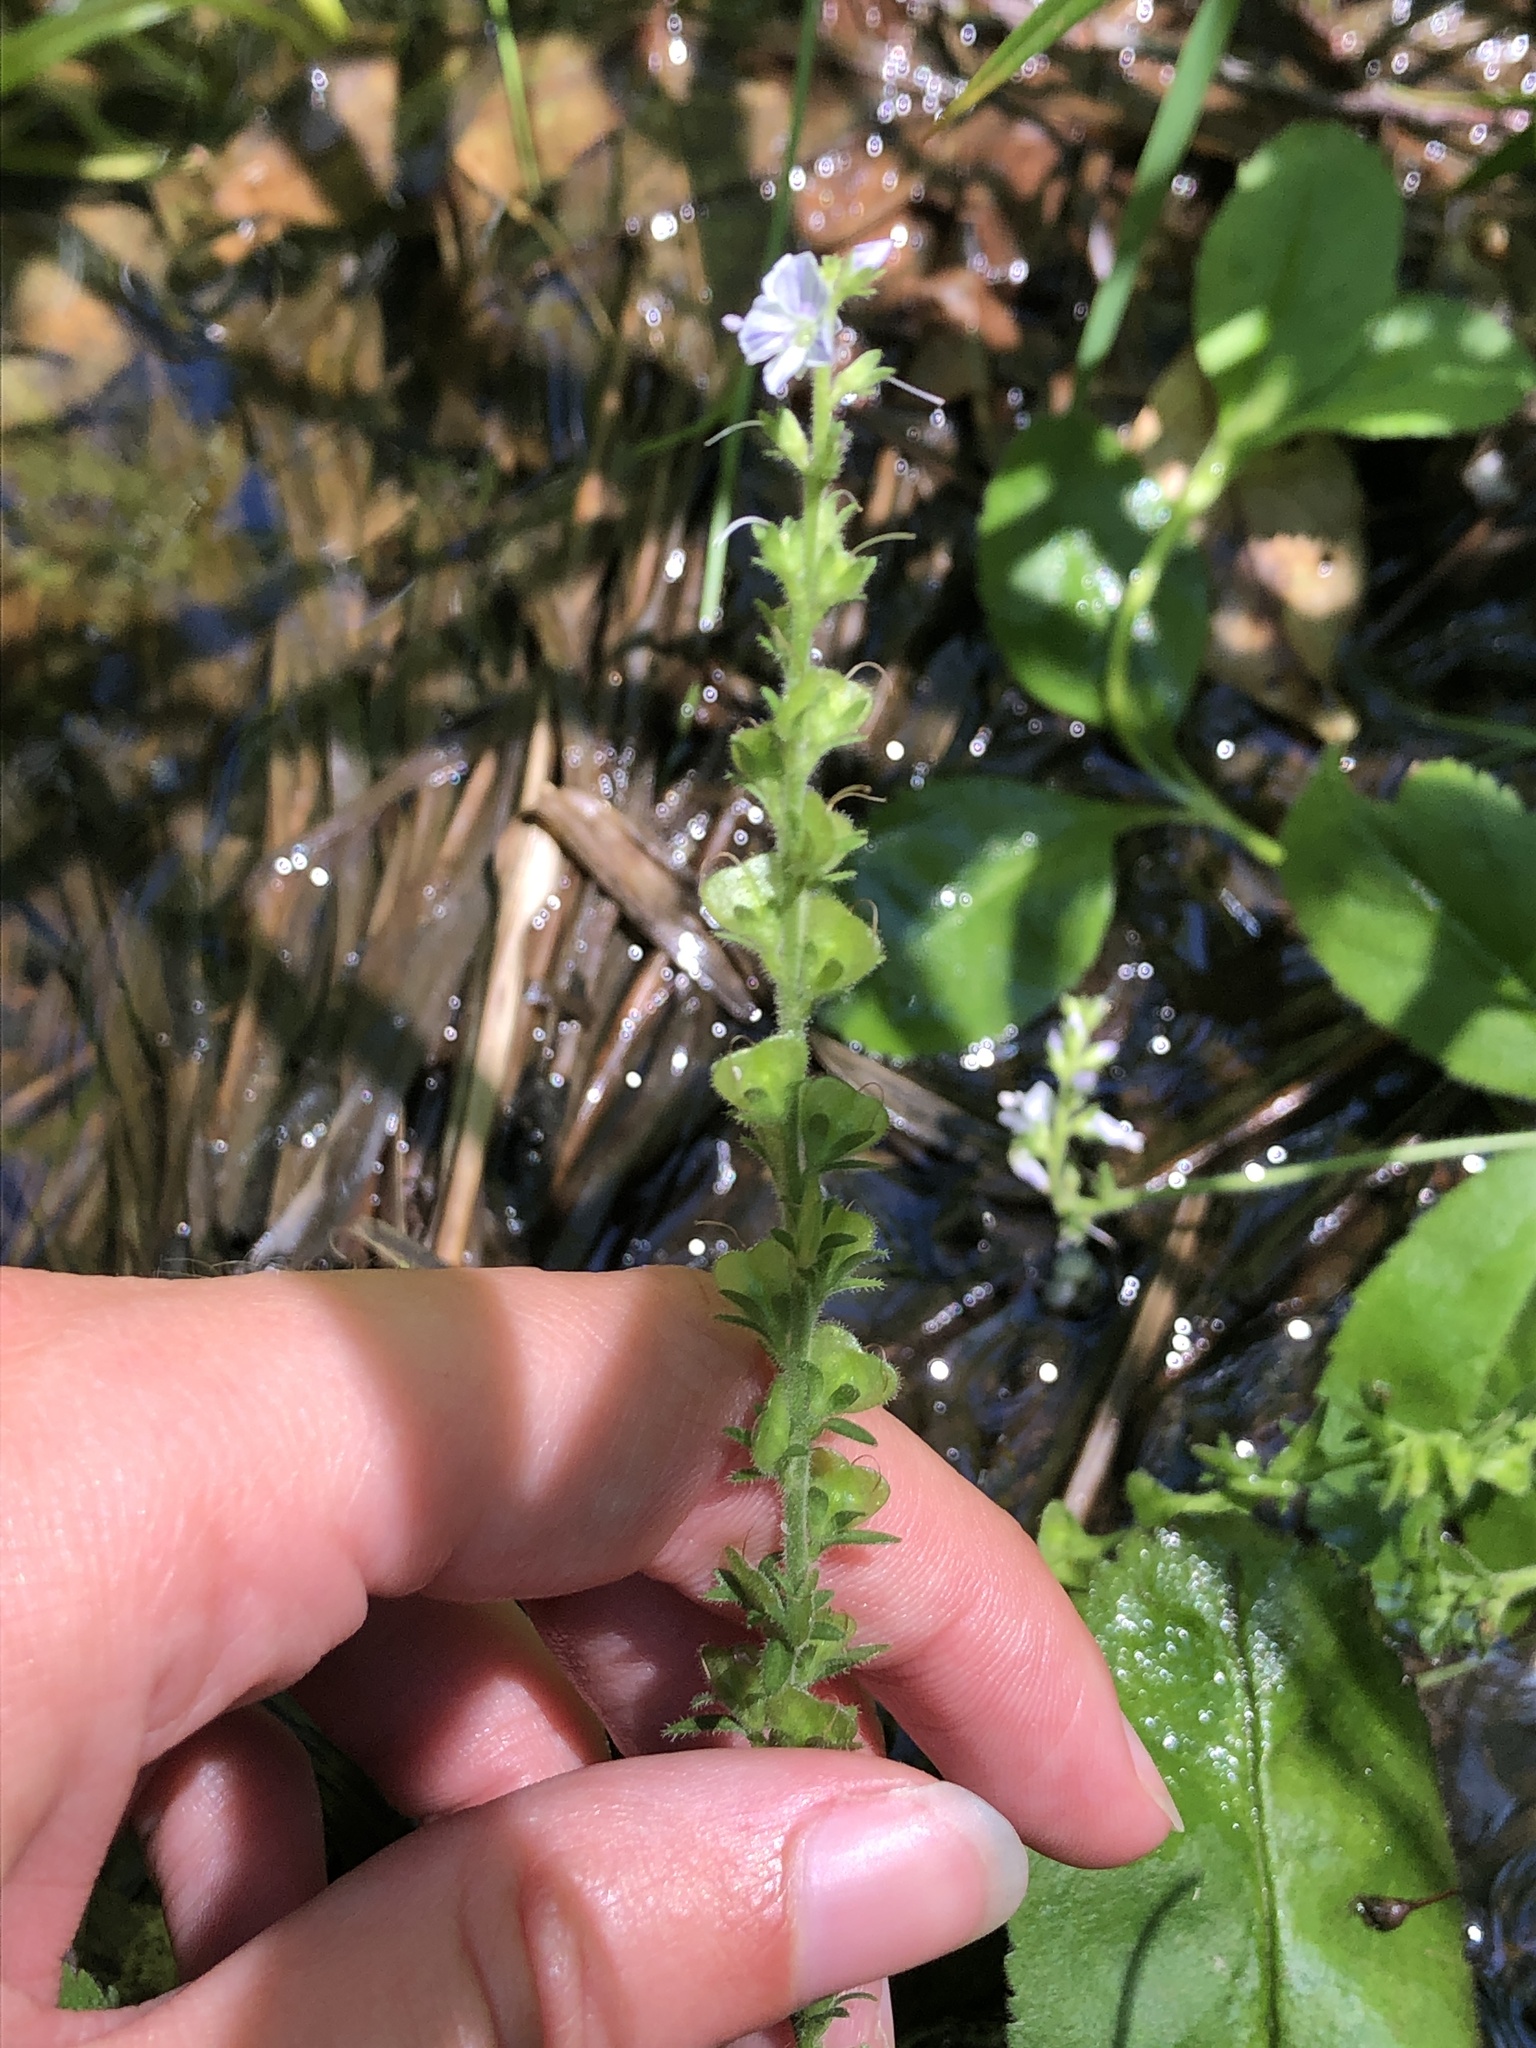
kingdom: Plantae
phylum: Tracheophyta
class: Magnoliopsida
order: Lamiales
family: Plantaginaceae
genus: Veronica
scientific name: Veronica officinalis
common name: Common speedwell
